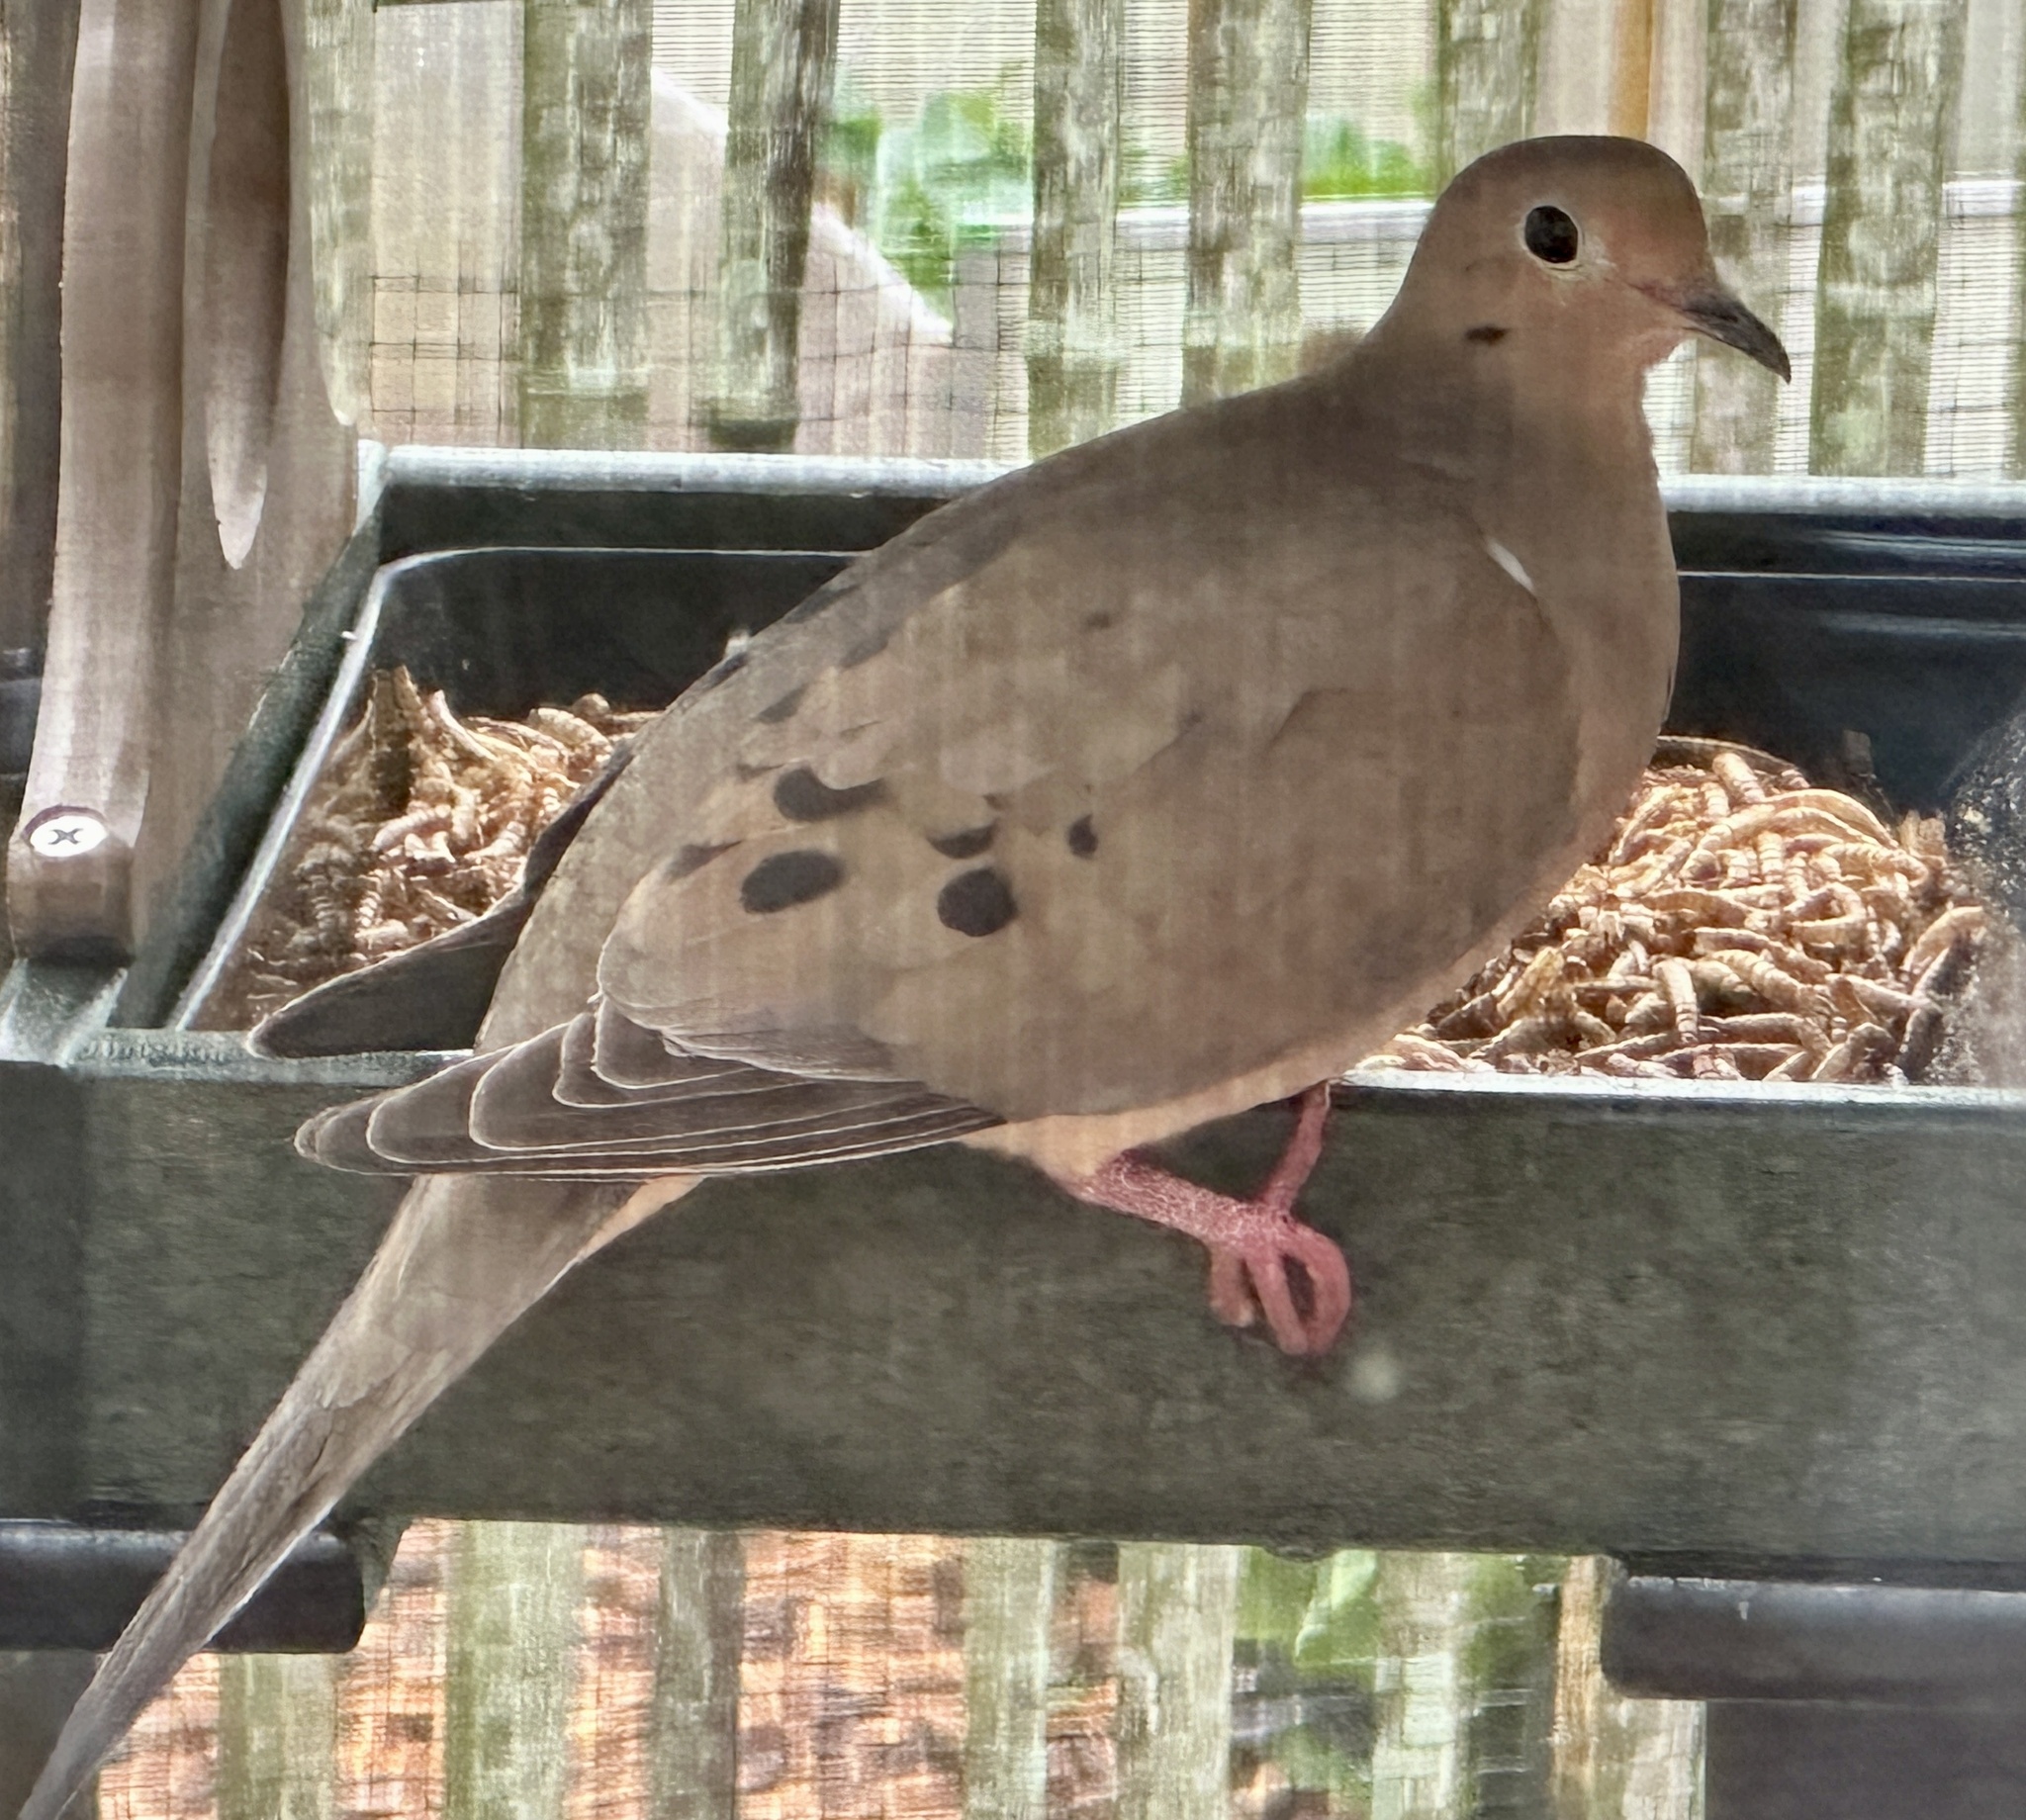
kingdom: Animalia
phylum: Chordata
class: Aves
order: Columbiformes
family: Columbidae
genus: Zenaida
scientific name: Zenaida macroura
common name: Mourning dove
